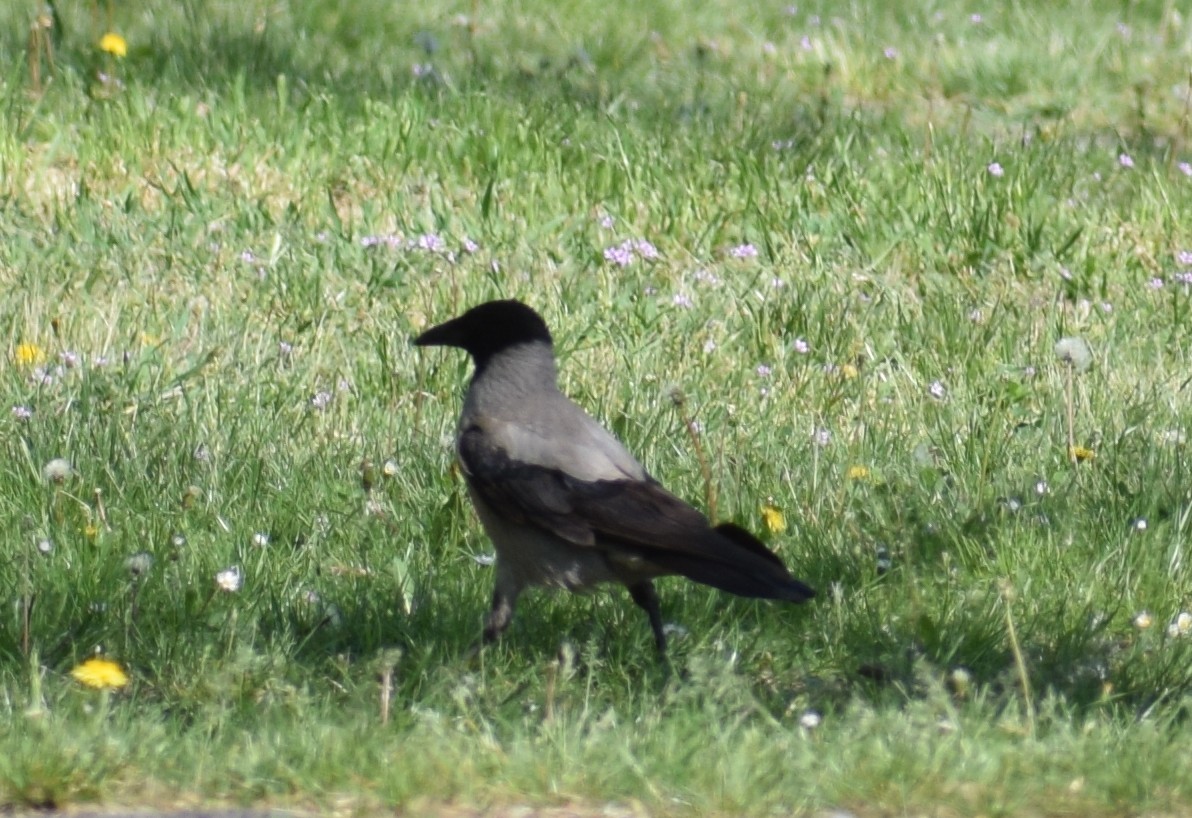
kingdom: Animalia
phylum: Chordata
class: Aves
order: Passeriformes
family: Corvidae
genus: Corvus
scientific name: Corvus cornix
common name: Hooded crow
